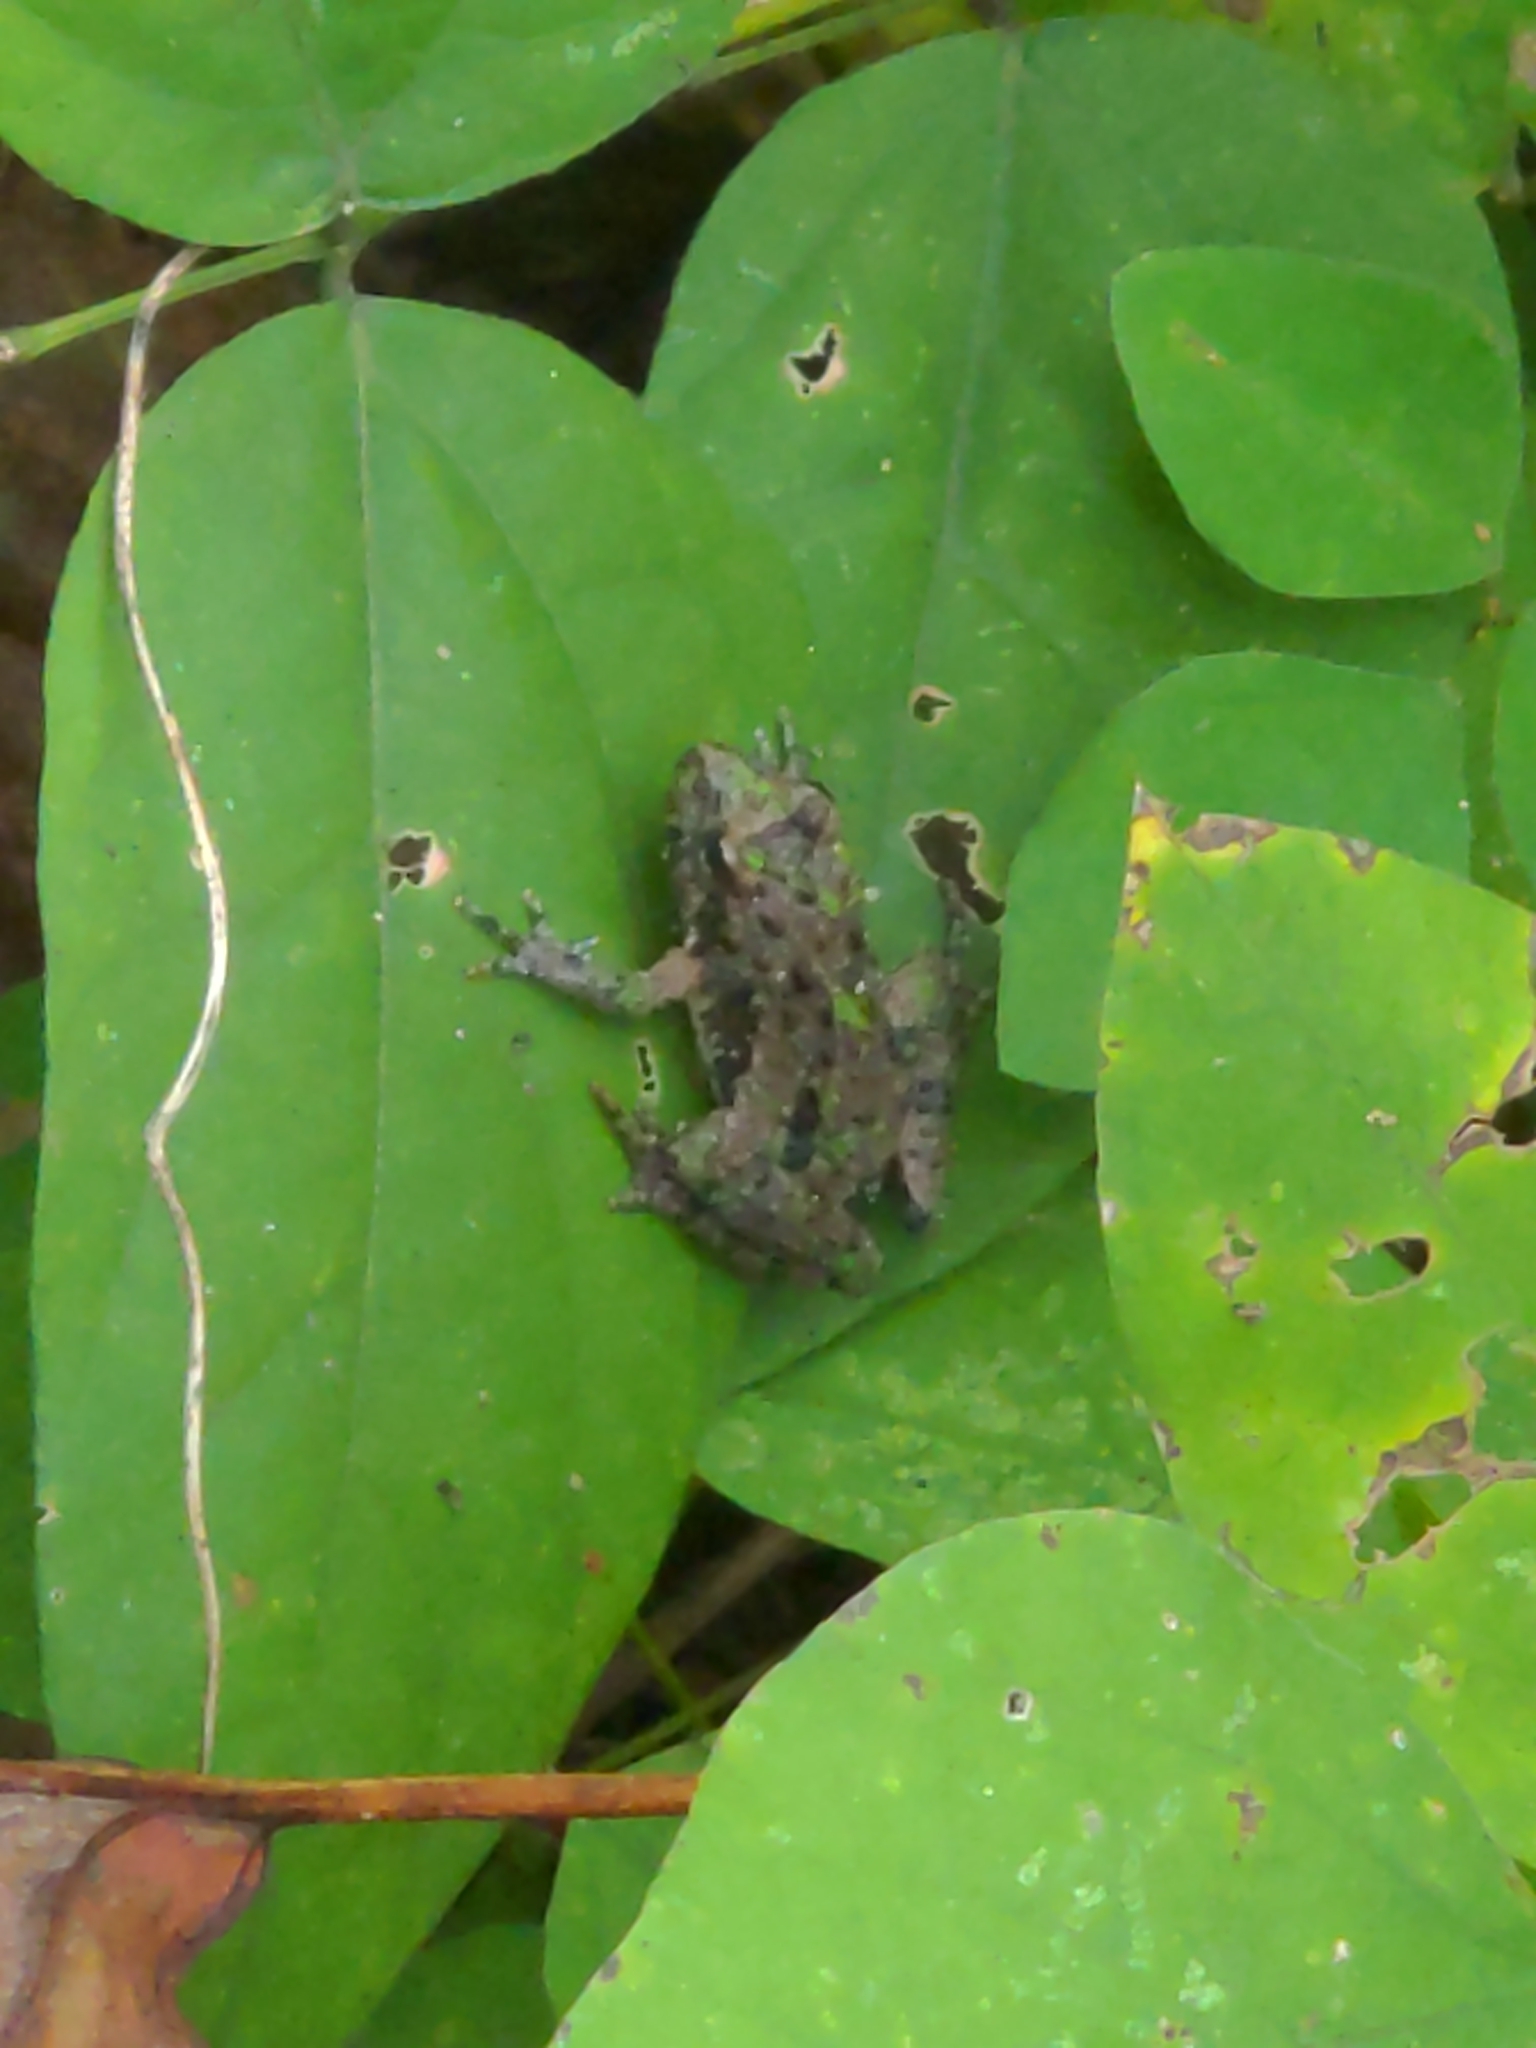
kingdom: Animalia
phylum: Chordata
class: Amphibia
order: Anura
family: Hylidae
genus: Acris
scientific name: Acris crepitans
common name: Northern cricket frog
